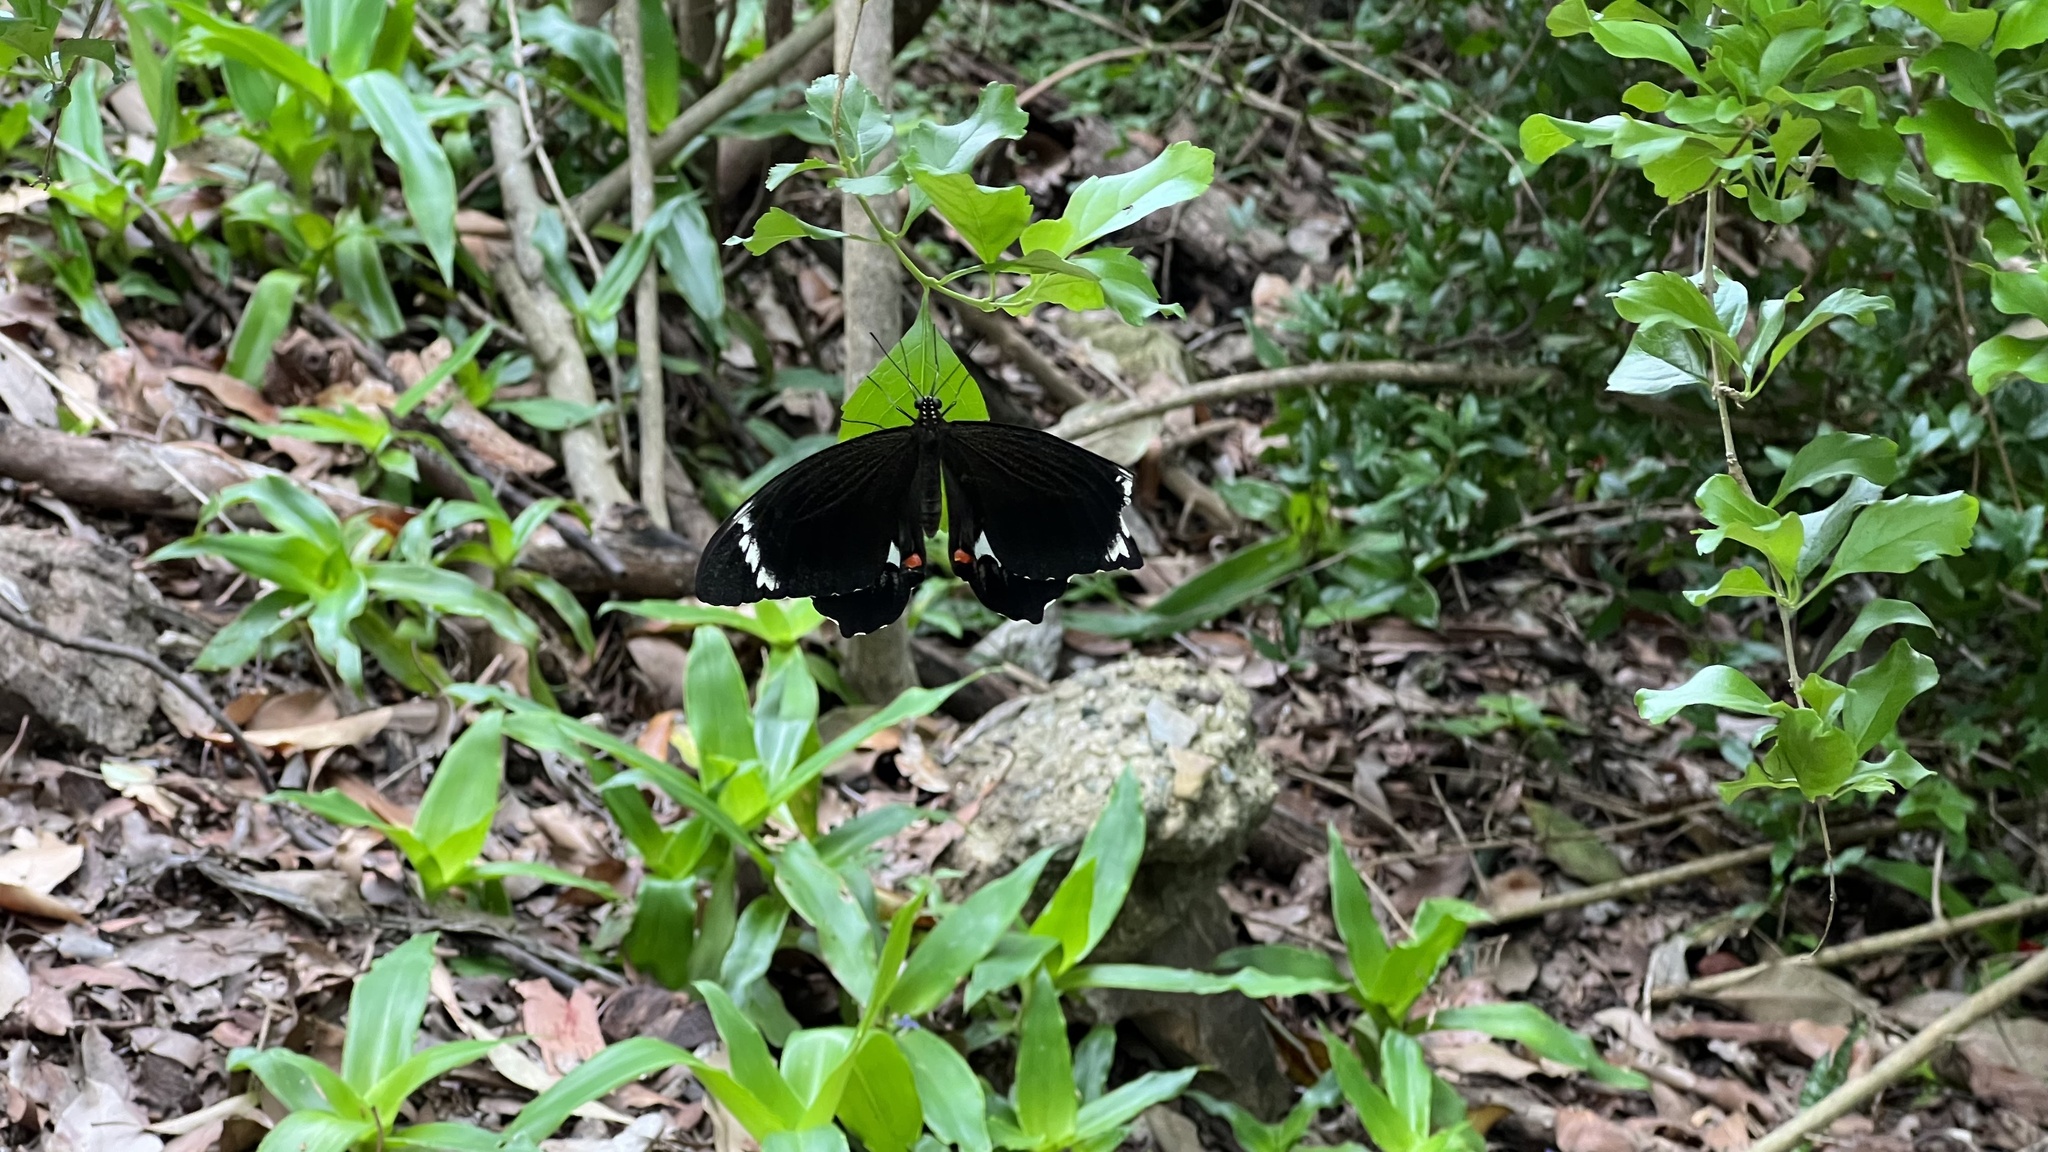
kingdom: Animalia
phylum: Arthropoda
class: Insecta
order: Lepidoptera
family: Papilionidae
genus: Papilio
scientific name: Papilio aegeus
